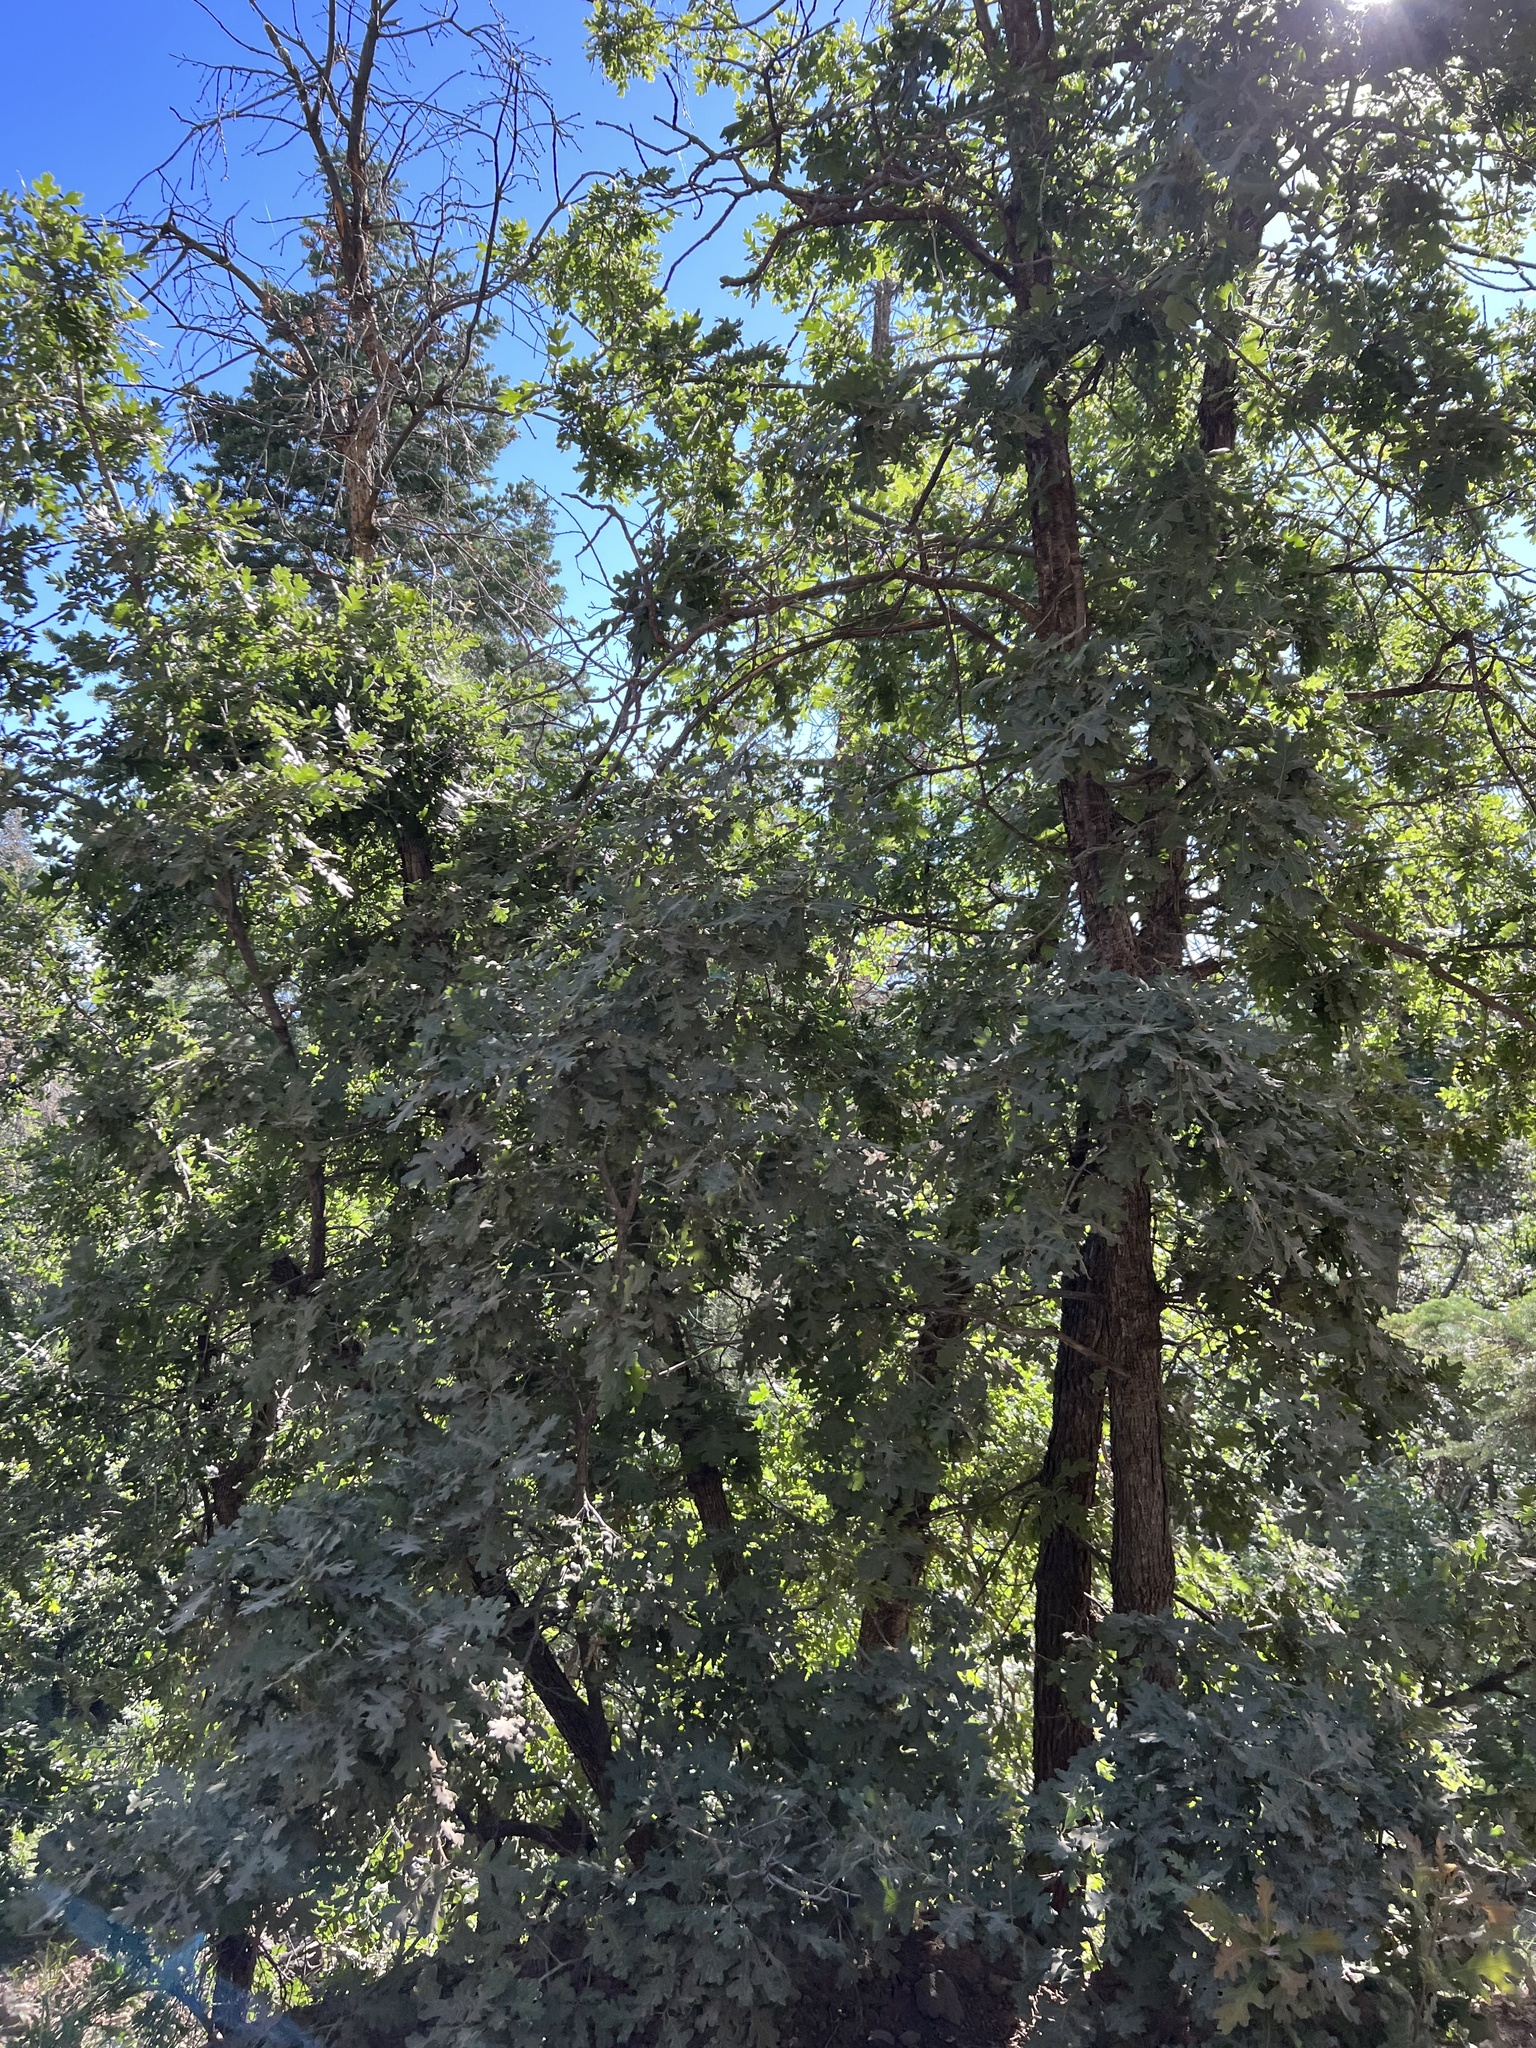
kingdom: Plantae
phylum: Tracheophyta
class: Magnoliopsida
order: Fagales
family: Fagaceae
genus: Quercus
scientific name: Quercus gambelii
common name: Gambel oak
